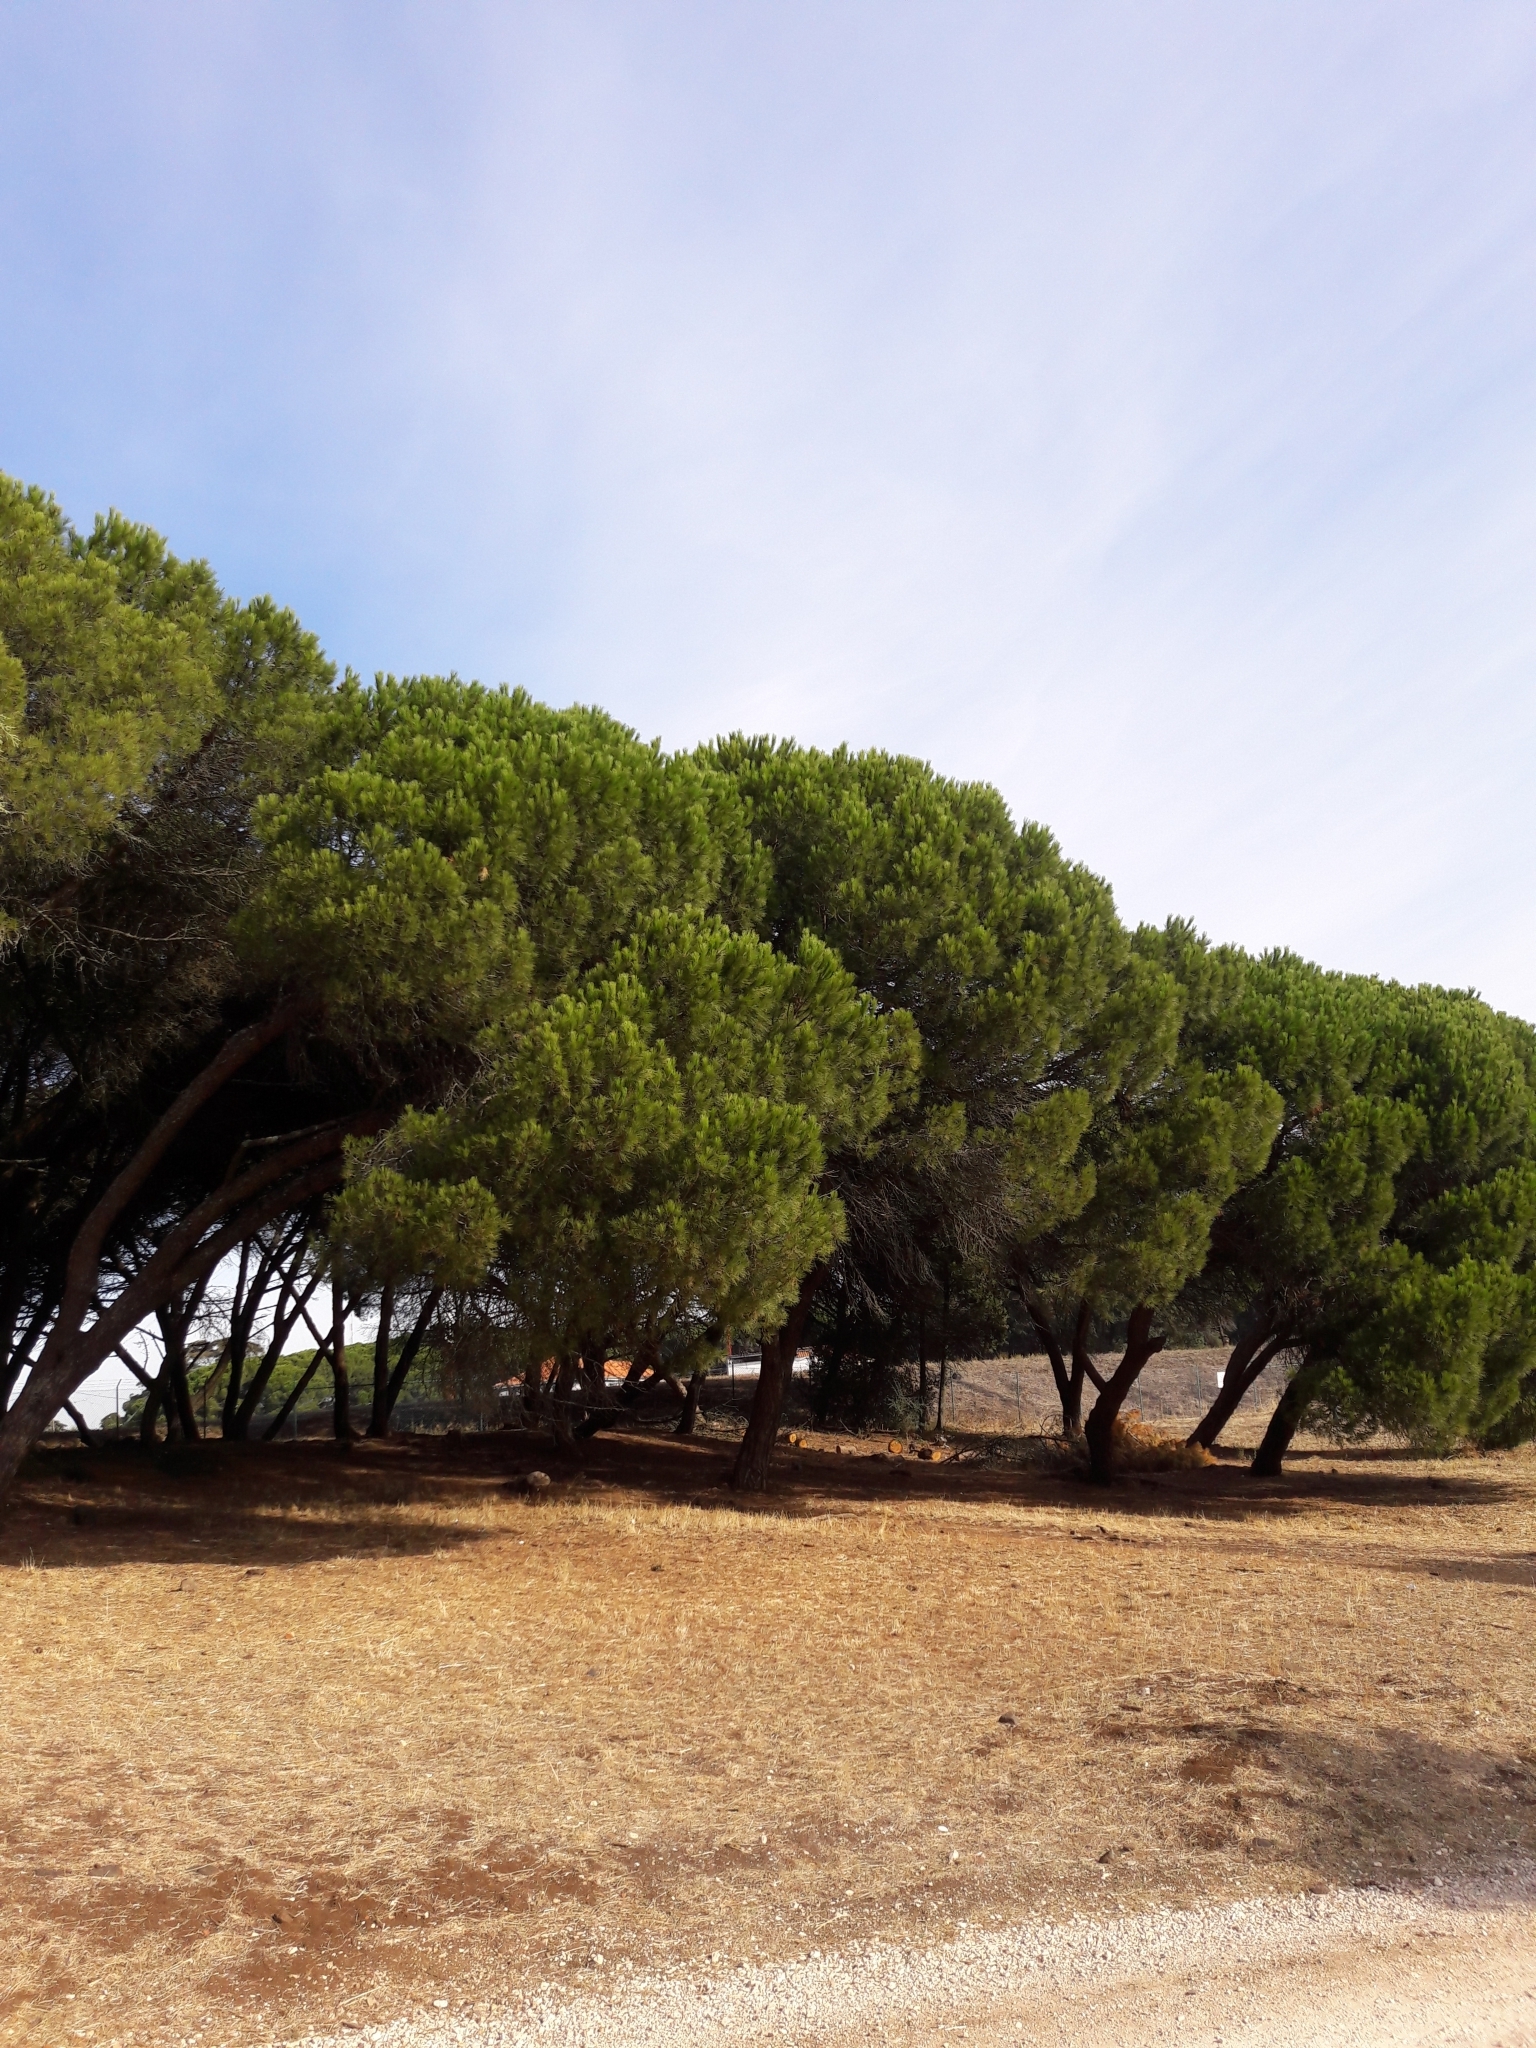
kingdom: Plantae
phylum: Tracheophyta
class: Pinopsida
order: Pinales
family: Pinaceae
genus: Pinus
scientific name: Pinus pinea
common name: Italian stone pine
